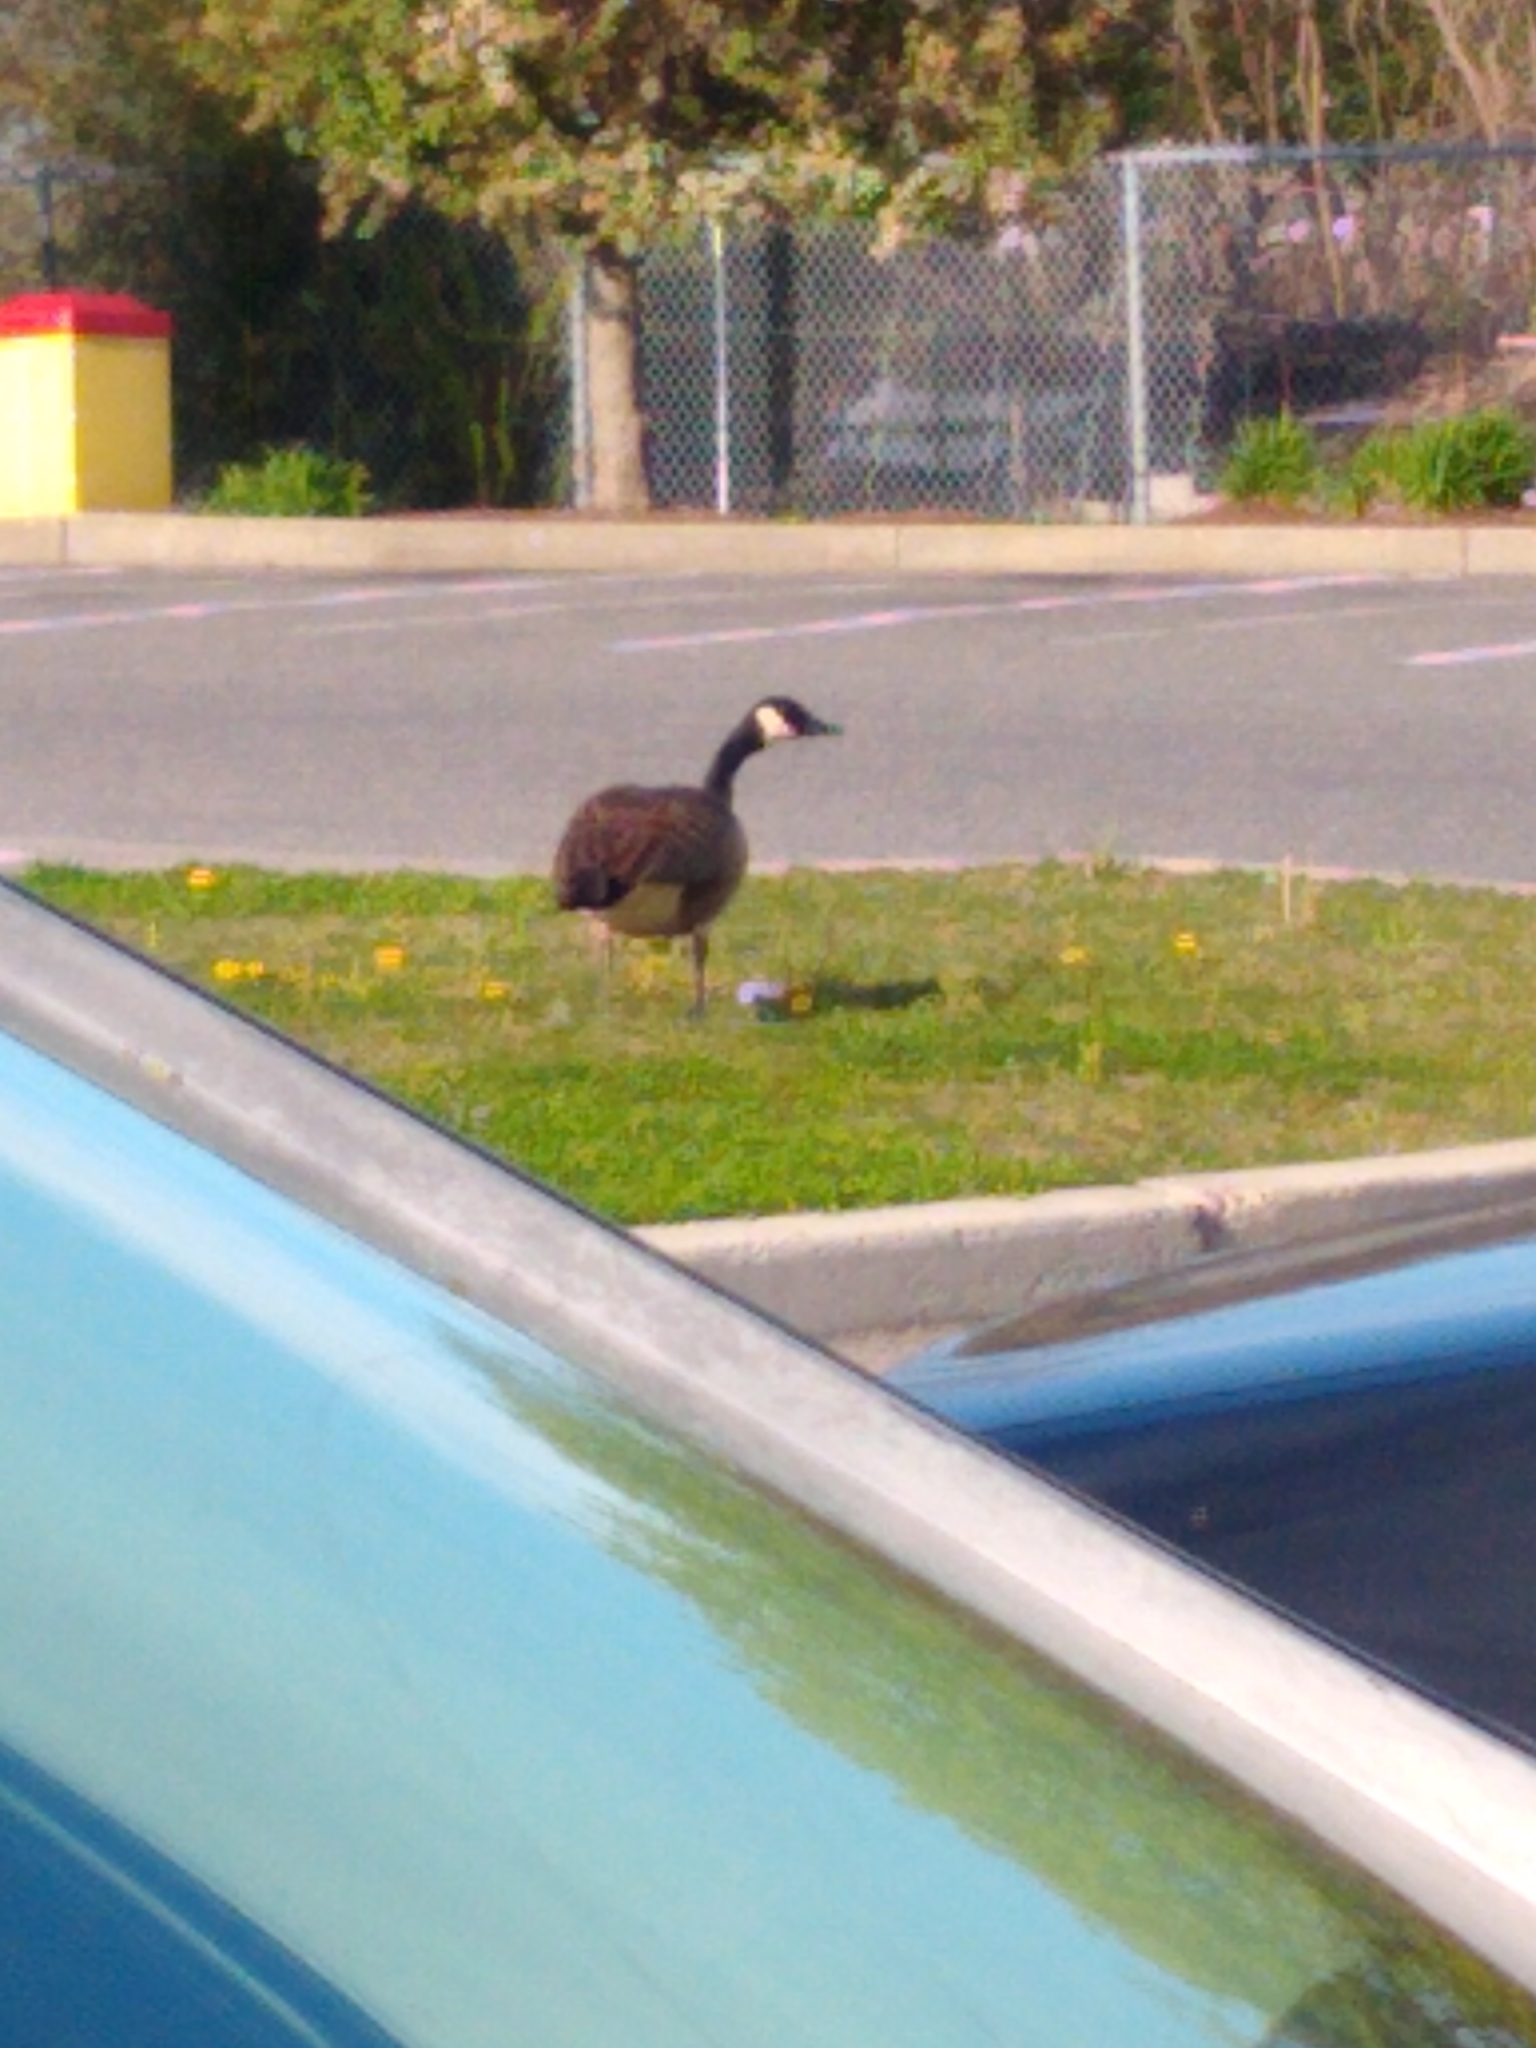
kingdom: Animalia
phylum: Chordata
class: Aves
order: Anseriformes
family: Anatidae
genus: Branta
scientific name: Branta canadensis
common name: Canada goose
